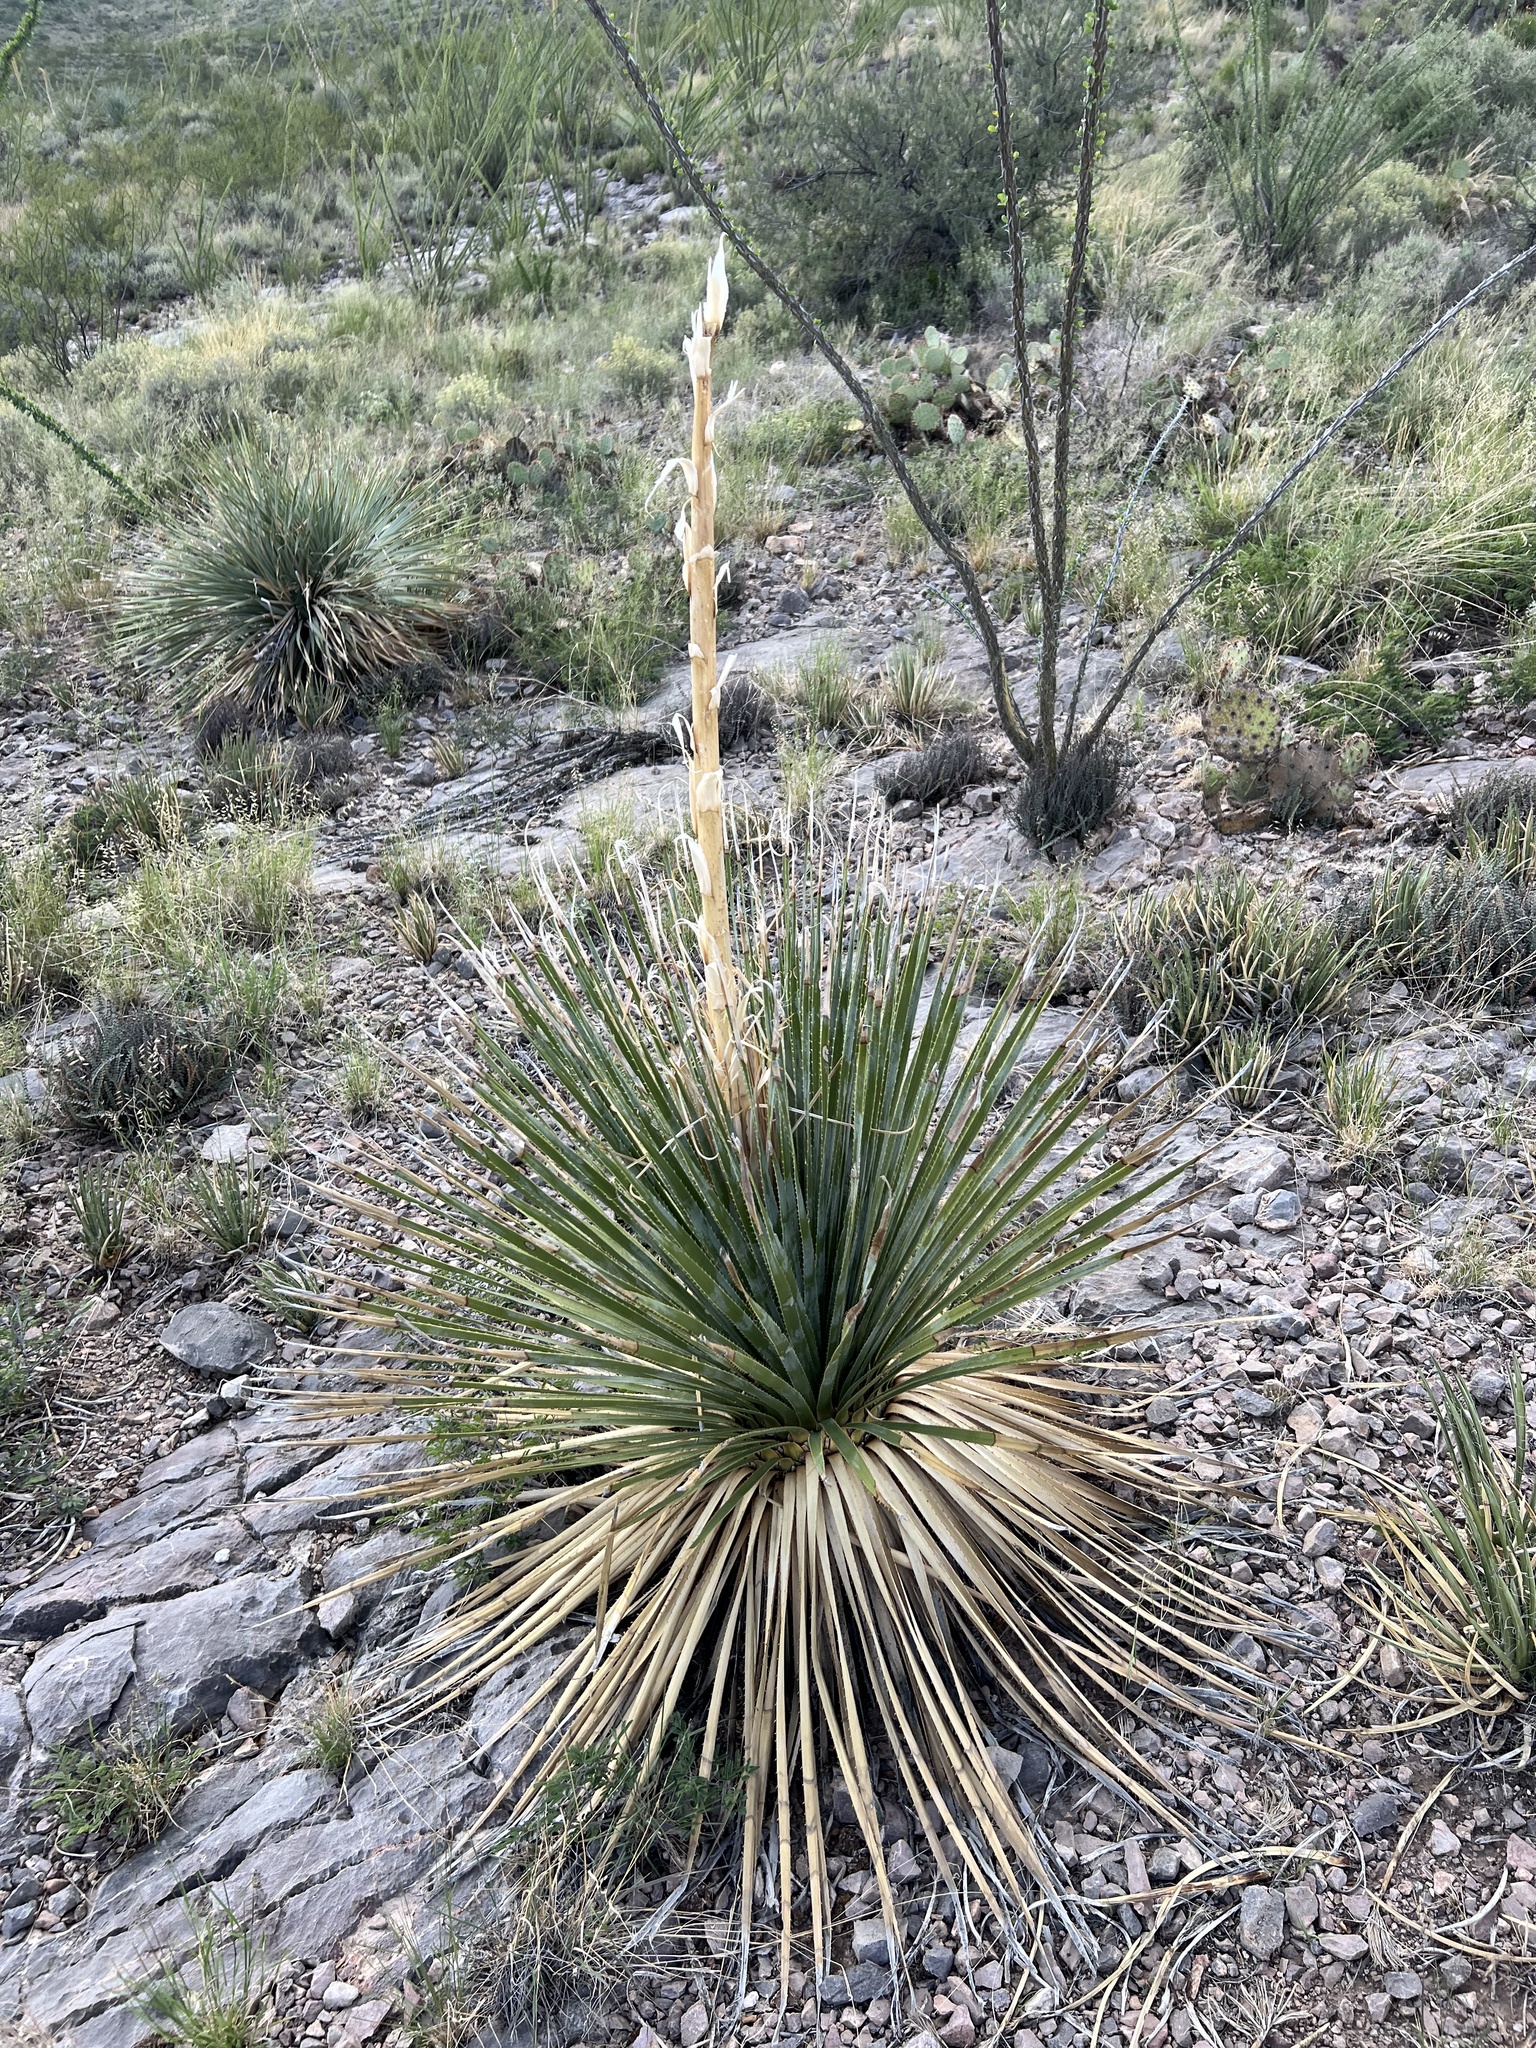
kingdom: Plantae
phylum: Tracheophyta
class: Liliopsida
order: Asparagales
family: Asparagaceae
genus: Dasylirion
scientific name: Dasylirion wheeleri
